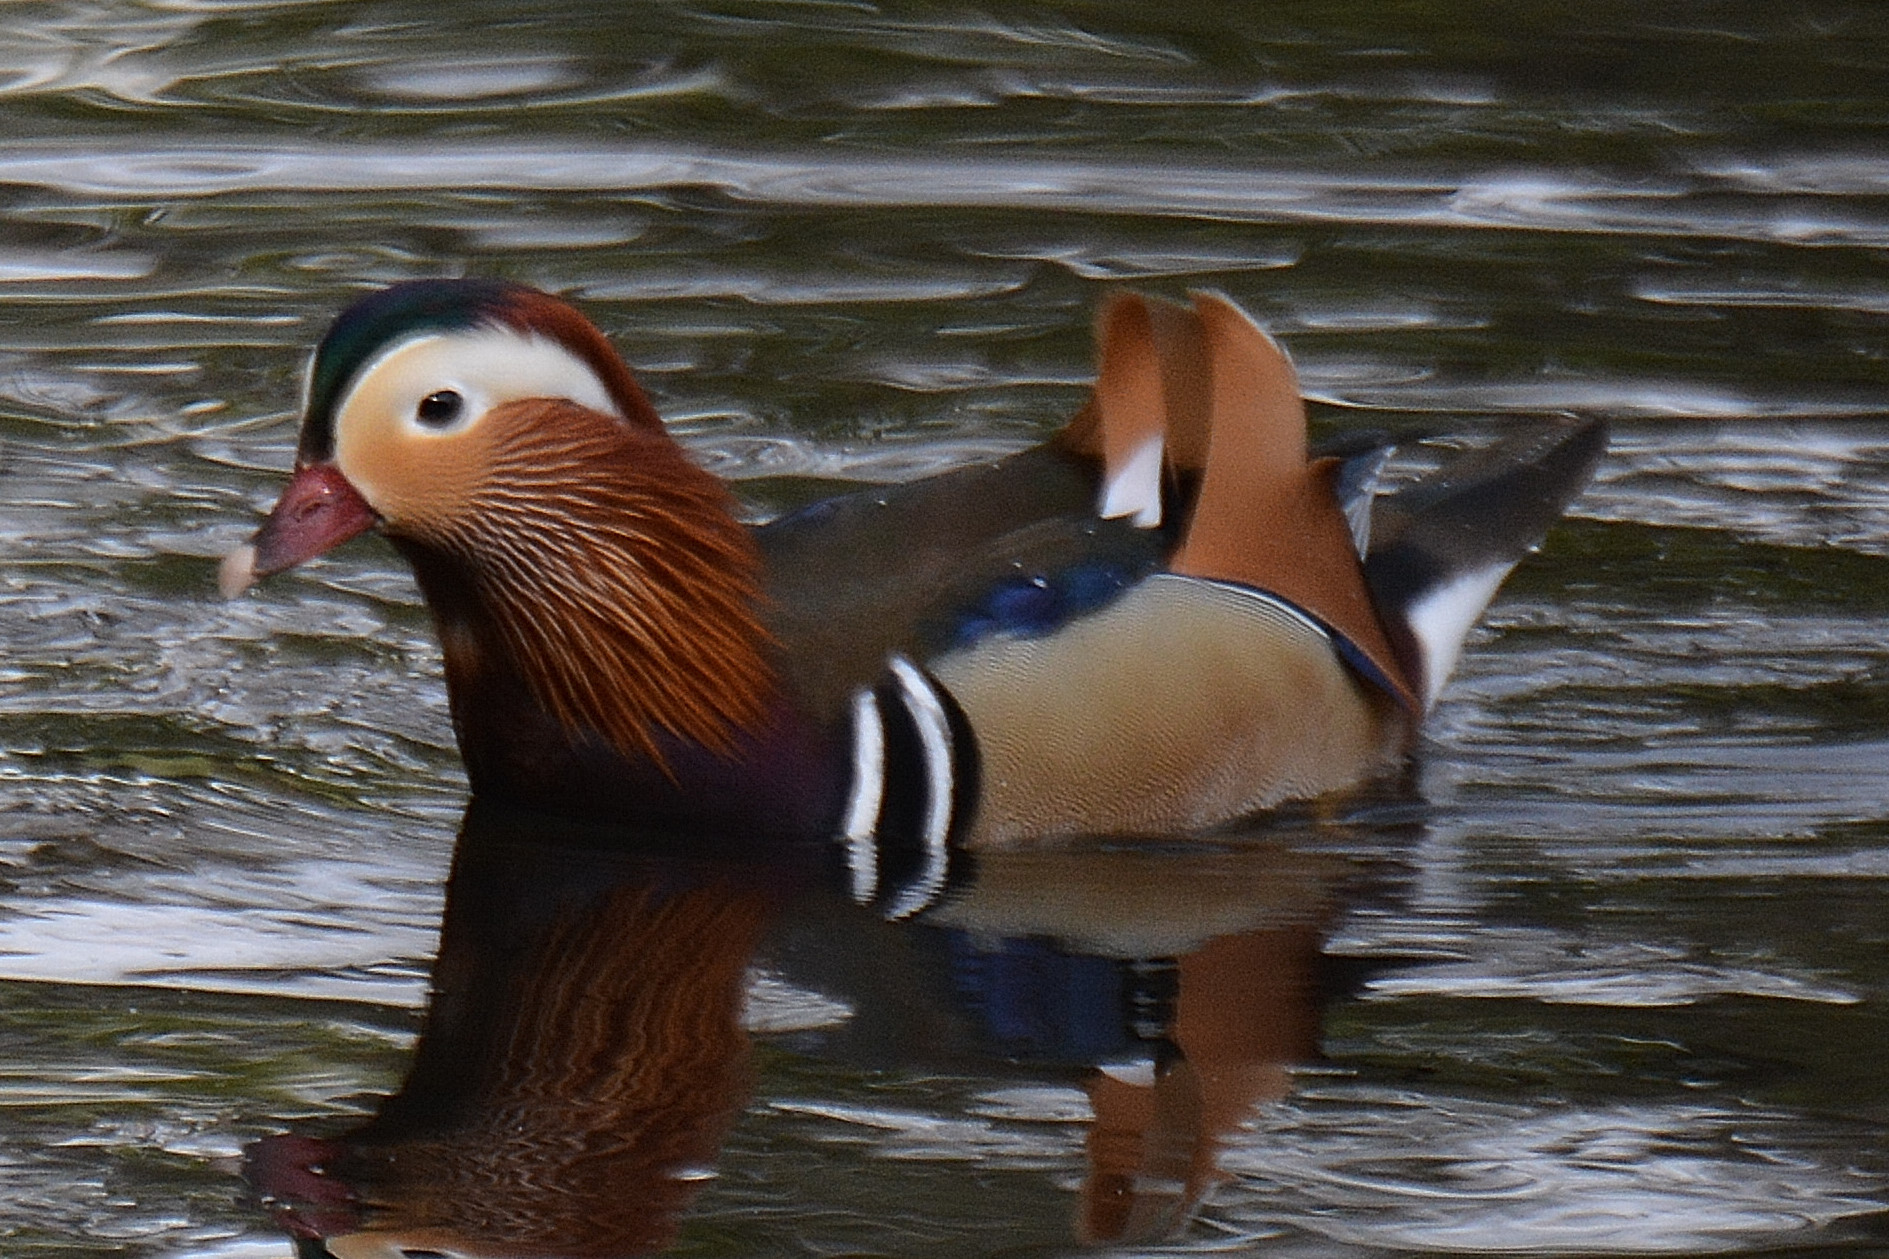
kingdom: Animalia
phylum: Chordata
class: Aves
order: Anseriformes
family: Anatidae
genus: Aix
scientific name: Aix galericulata
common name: Mandarin duck
